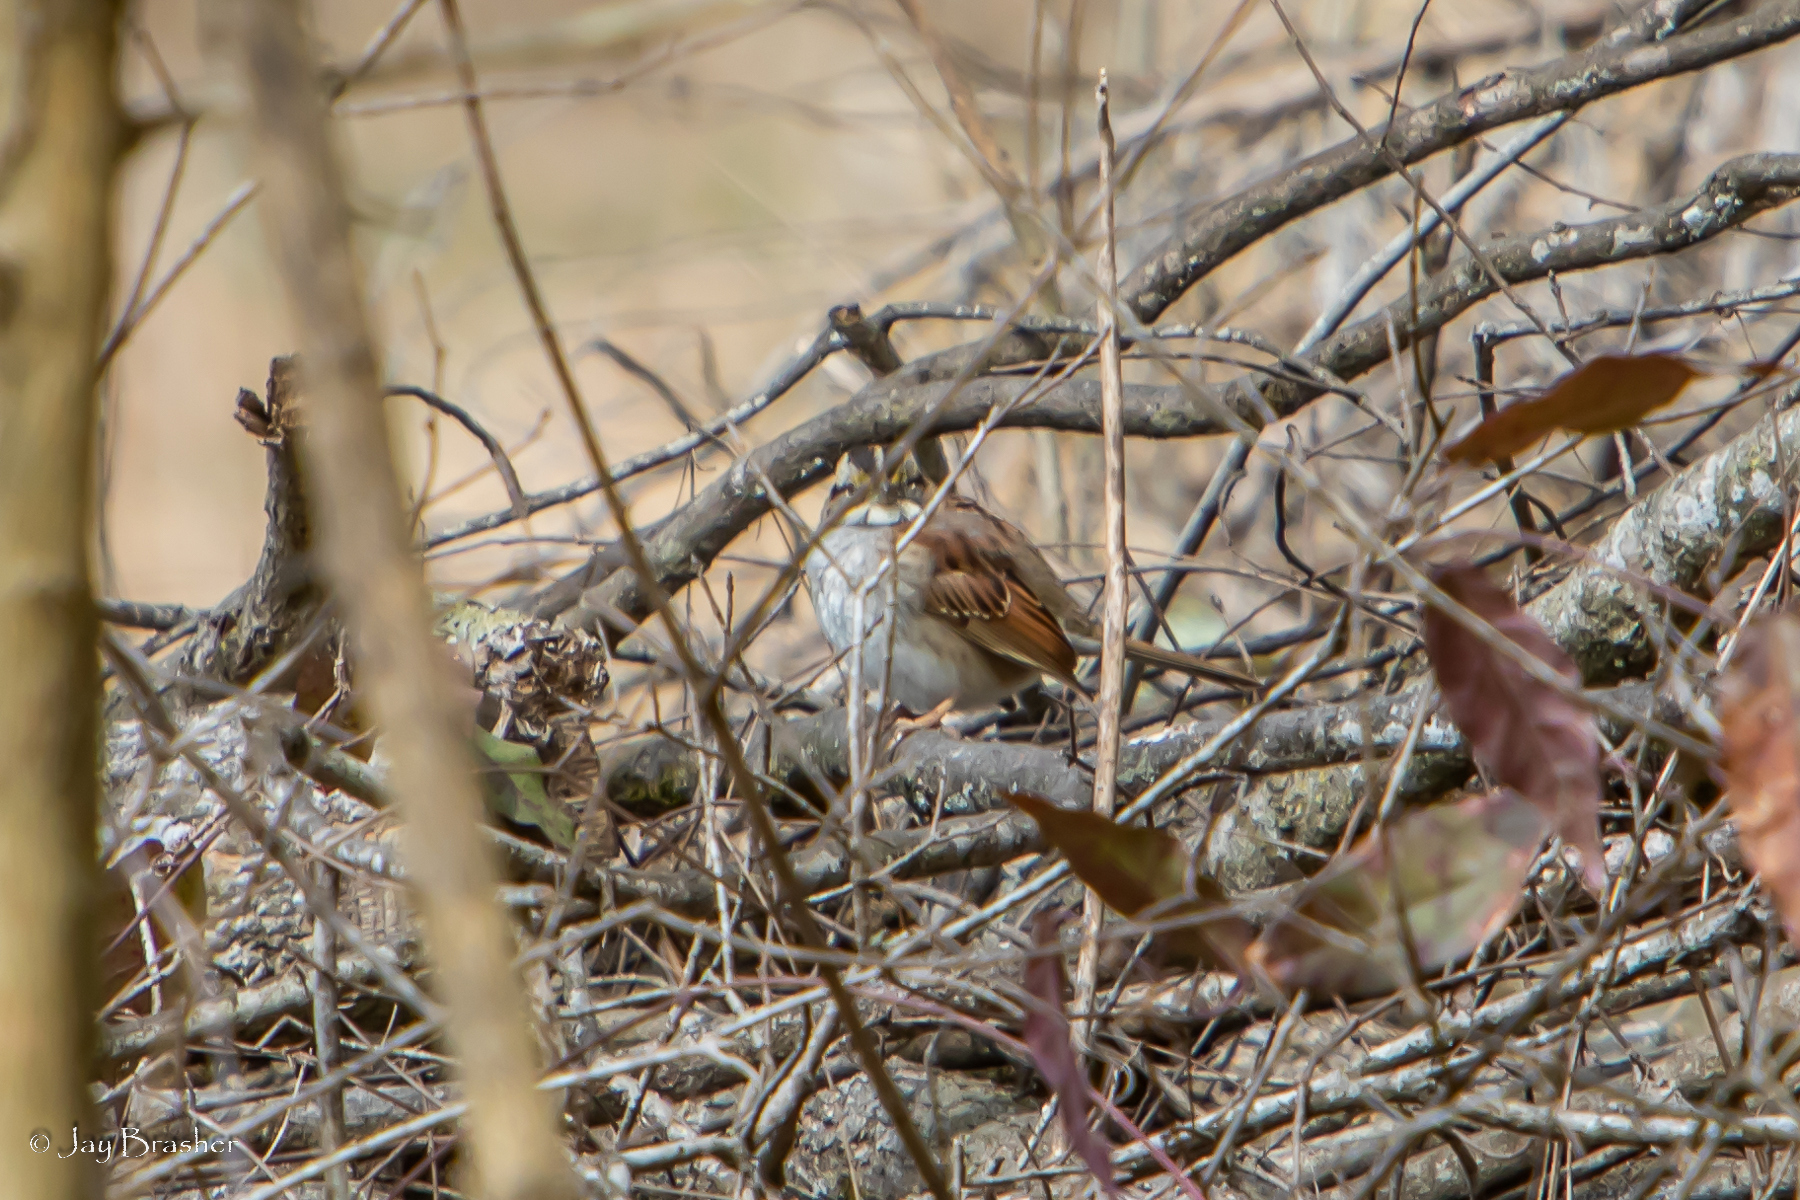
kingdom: Animalia
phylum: Chordata
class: Aves
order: Passeriformes
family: Passerellidae
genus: Zonotrichia
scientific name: Zonotrichia albicollis
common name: White-throated sparrow
